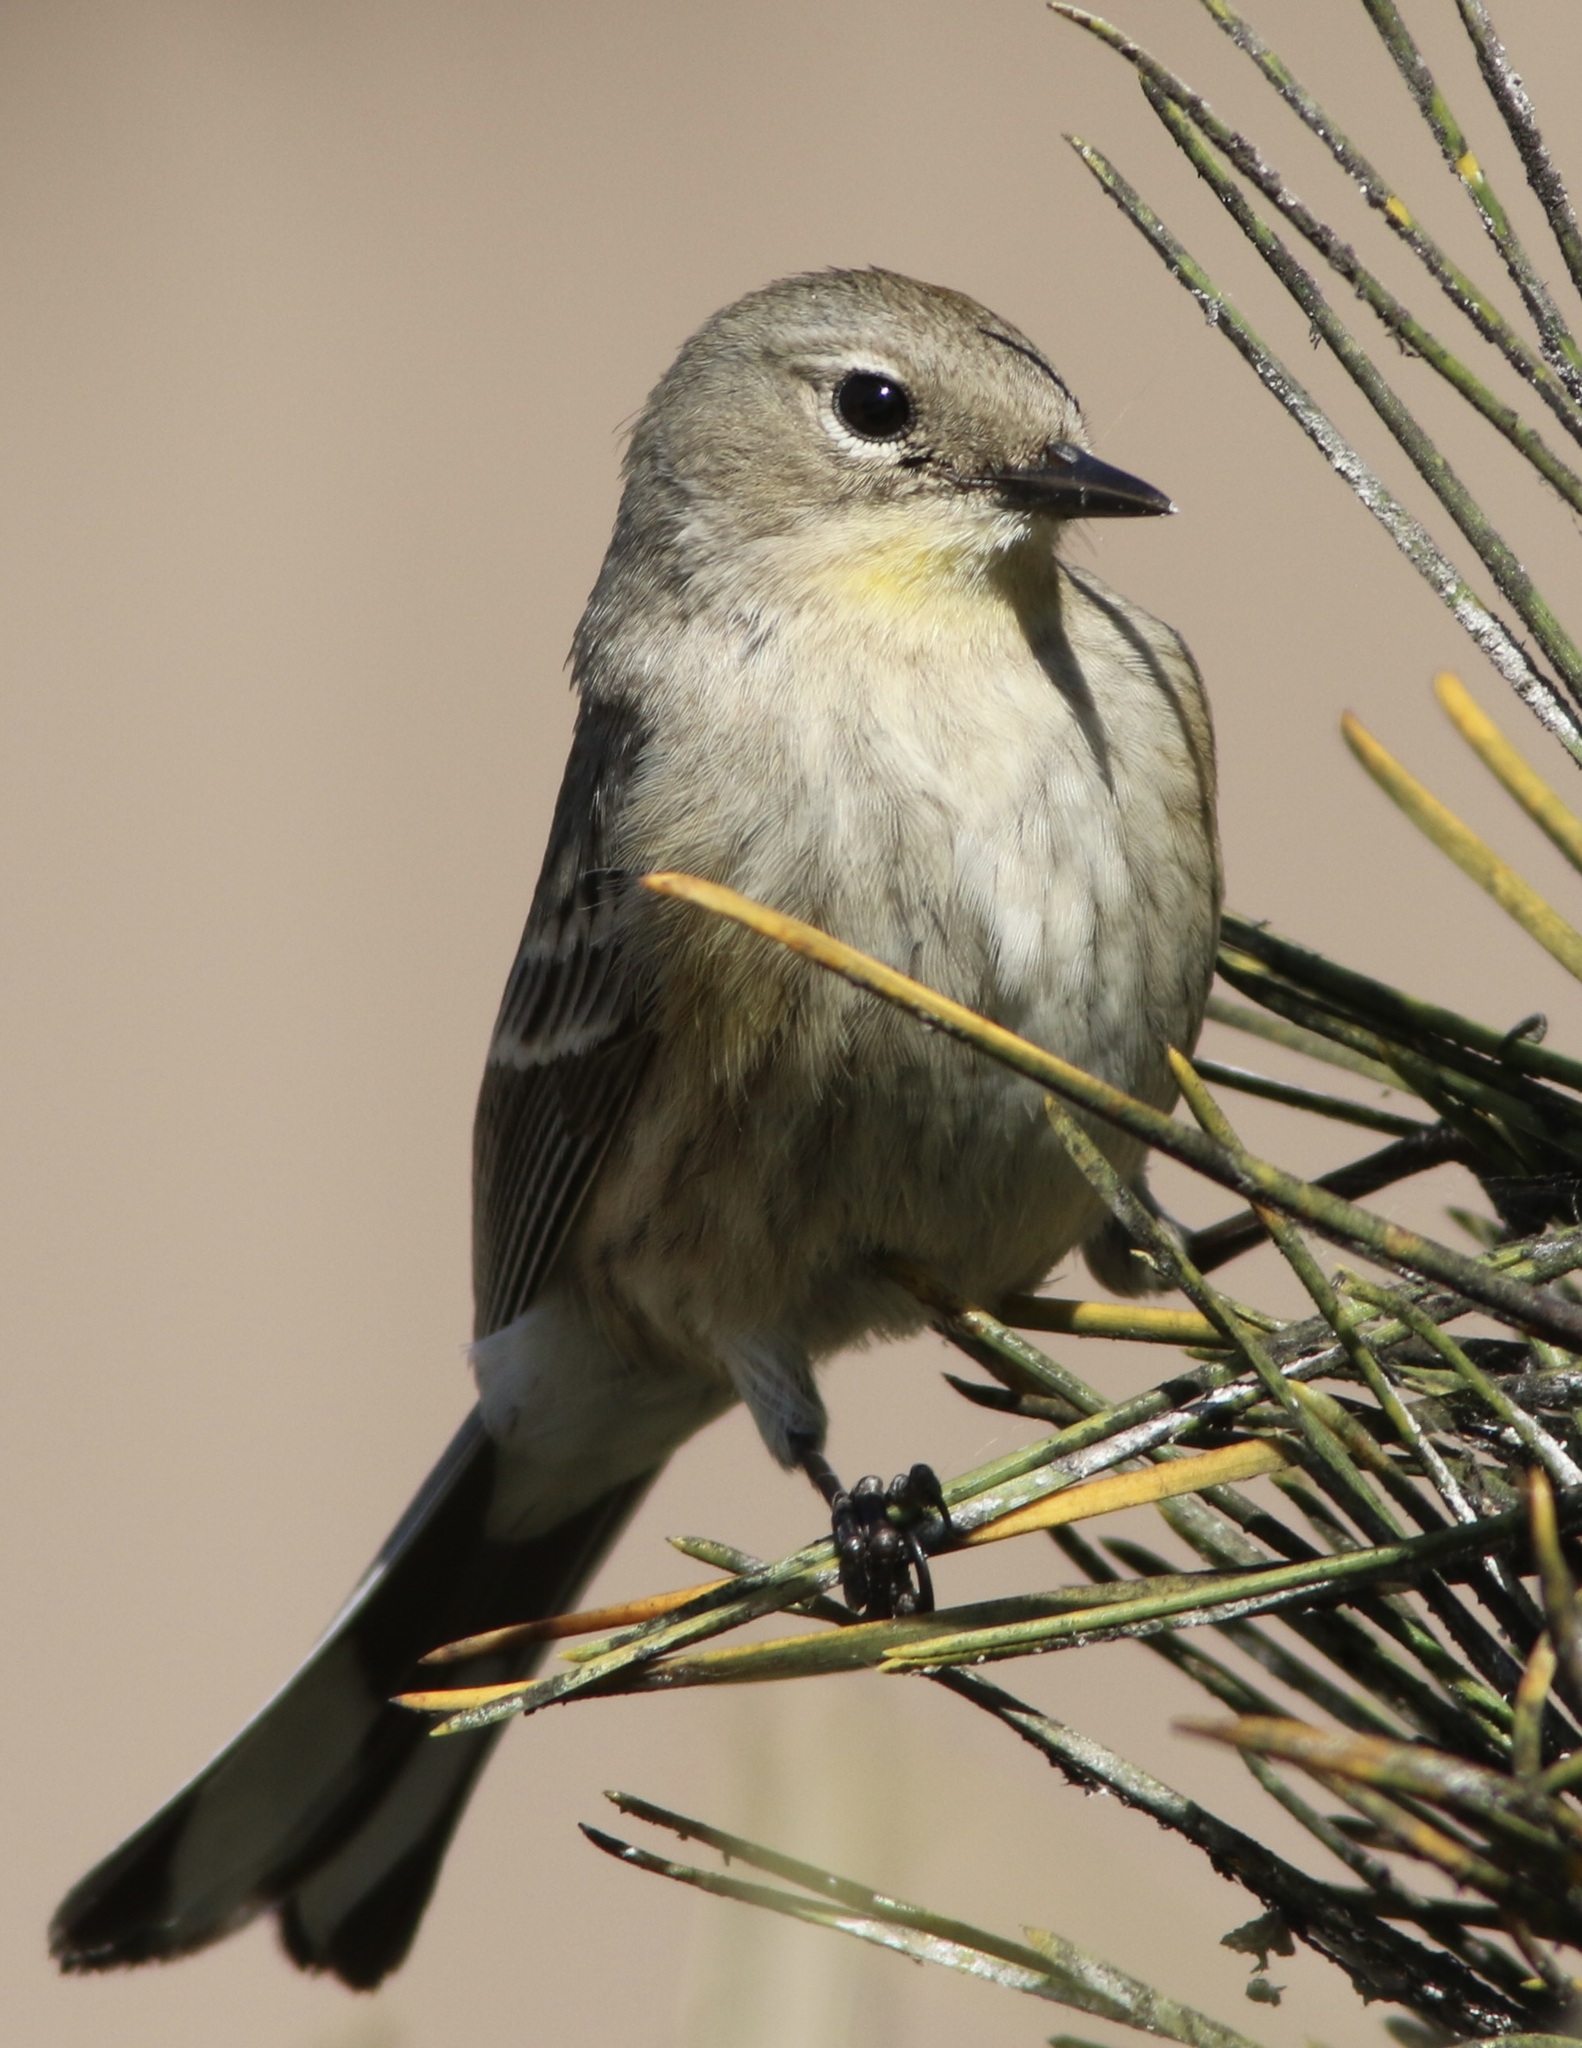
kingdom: Animalia
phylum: Chordata
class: Aves
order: Passeriformes
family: Parulidae
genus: Setophaga
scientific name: Setophaga coronata
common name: Myrtle warbler
